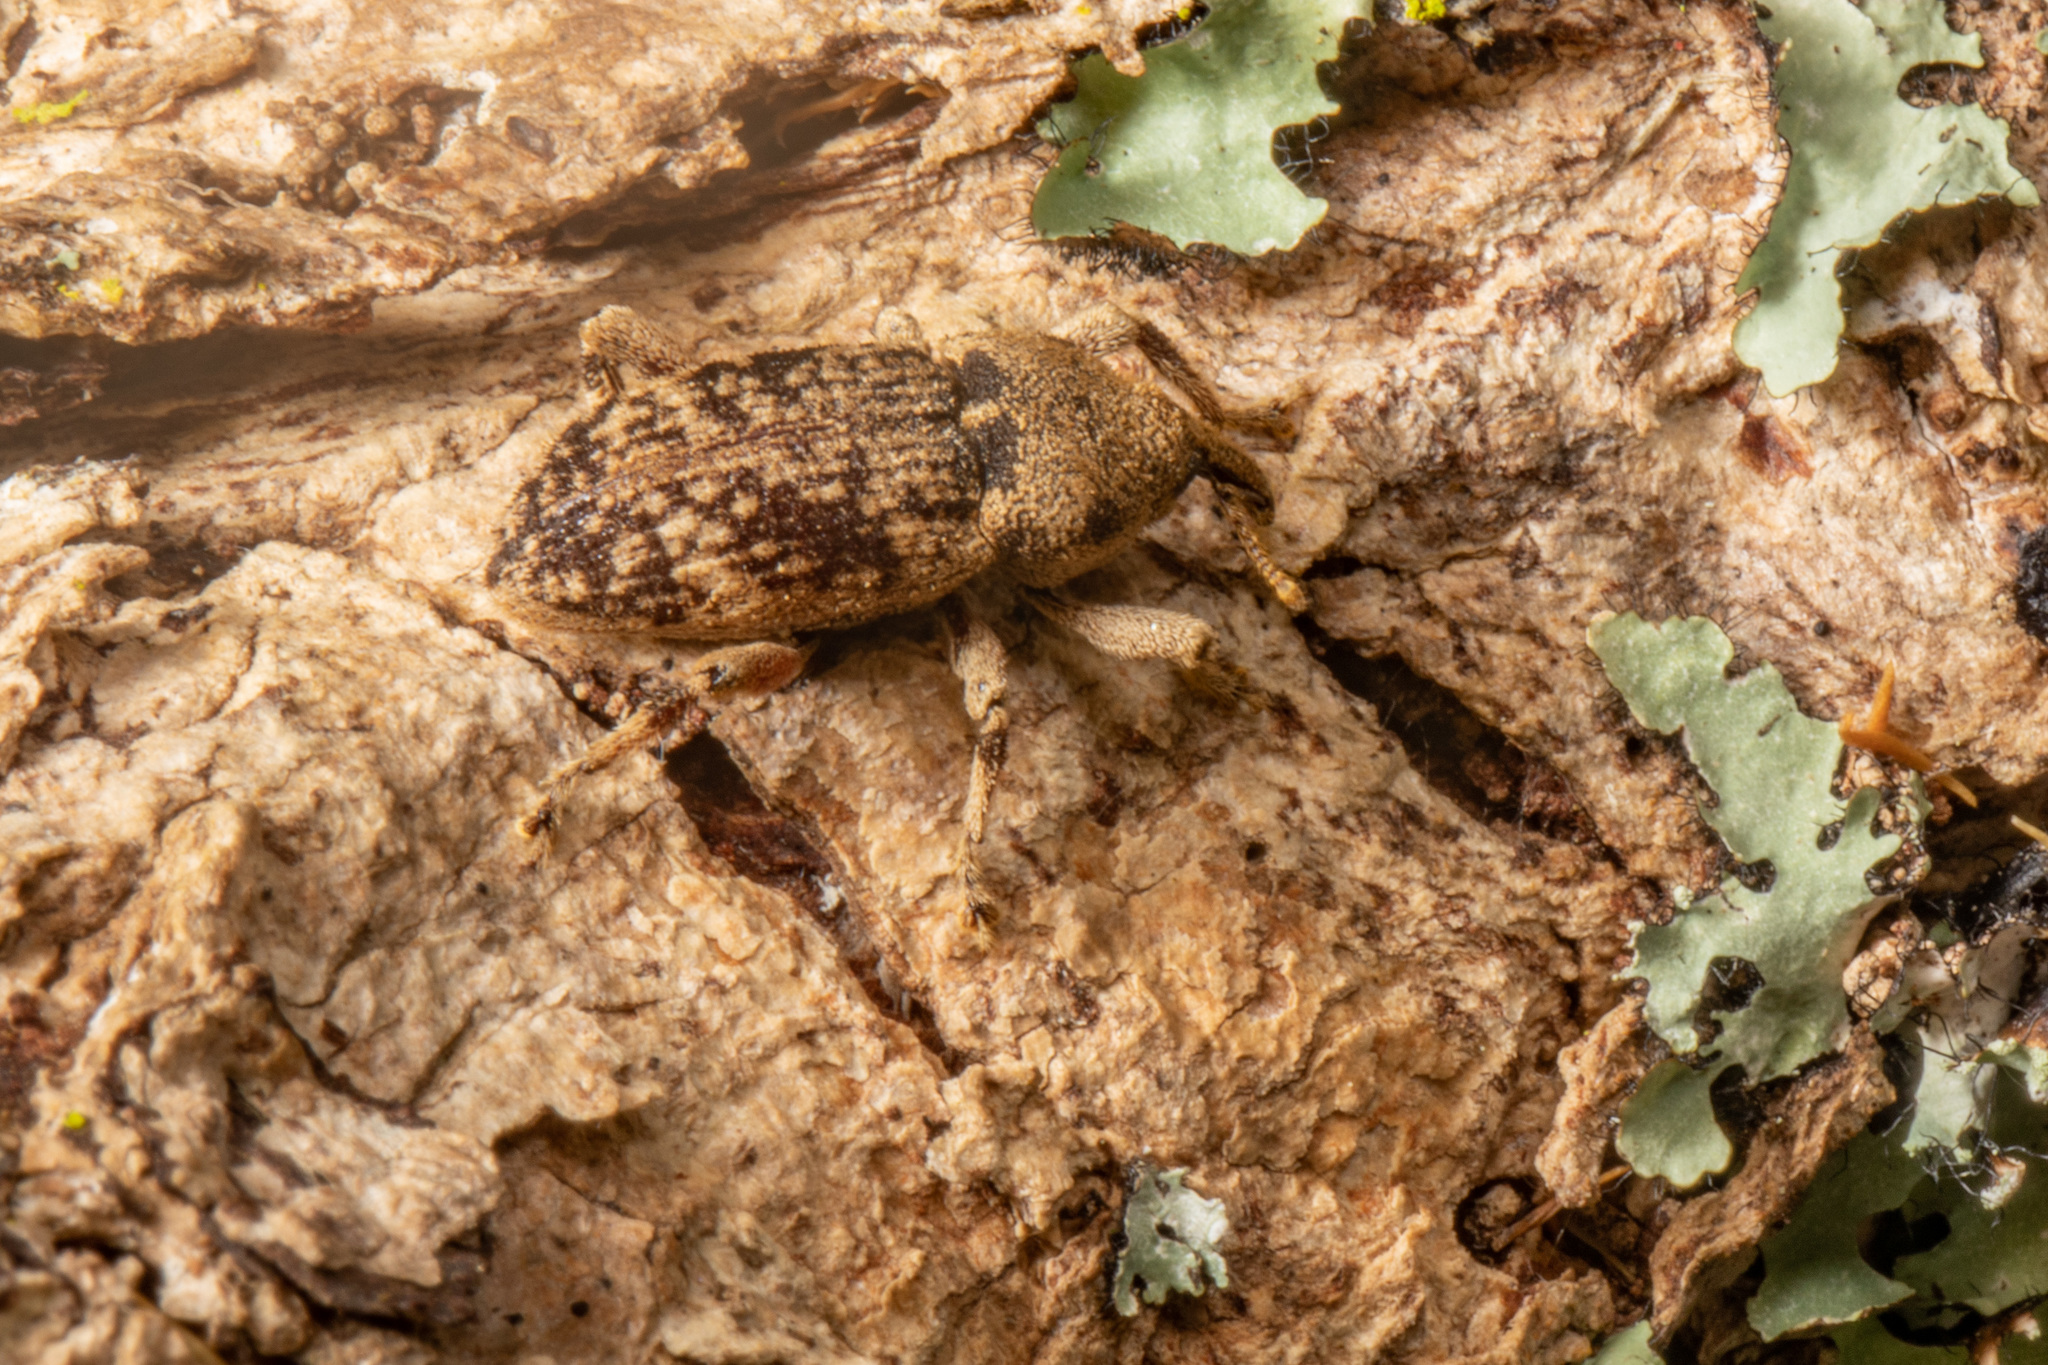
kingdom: Animalia
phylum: Arthropoda
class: Insecta
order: Coleoptera
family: Curculionidae
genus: Strongylopterus
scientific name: Strongylopterus hylopioides
